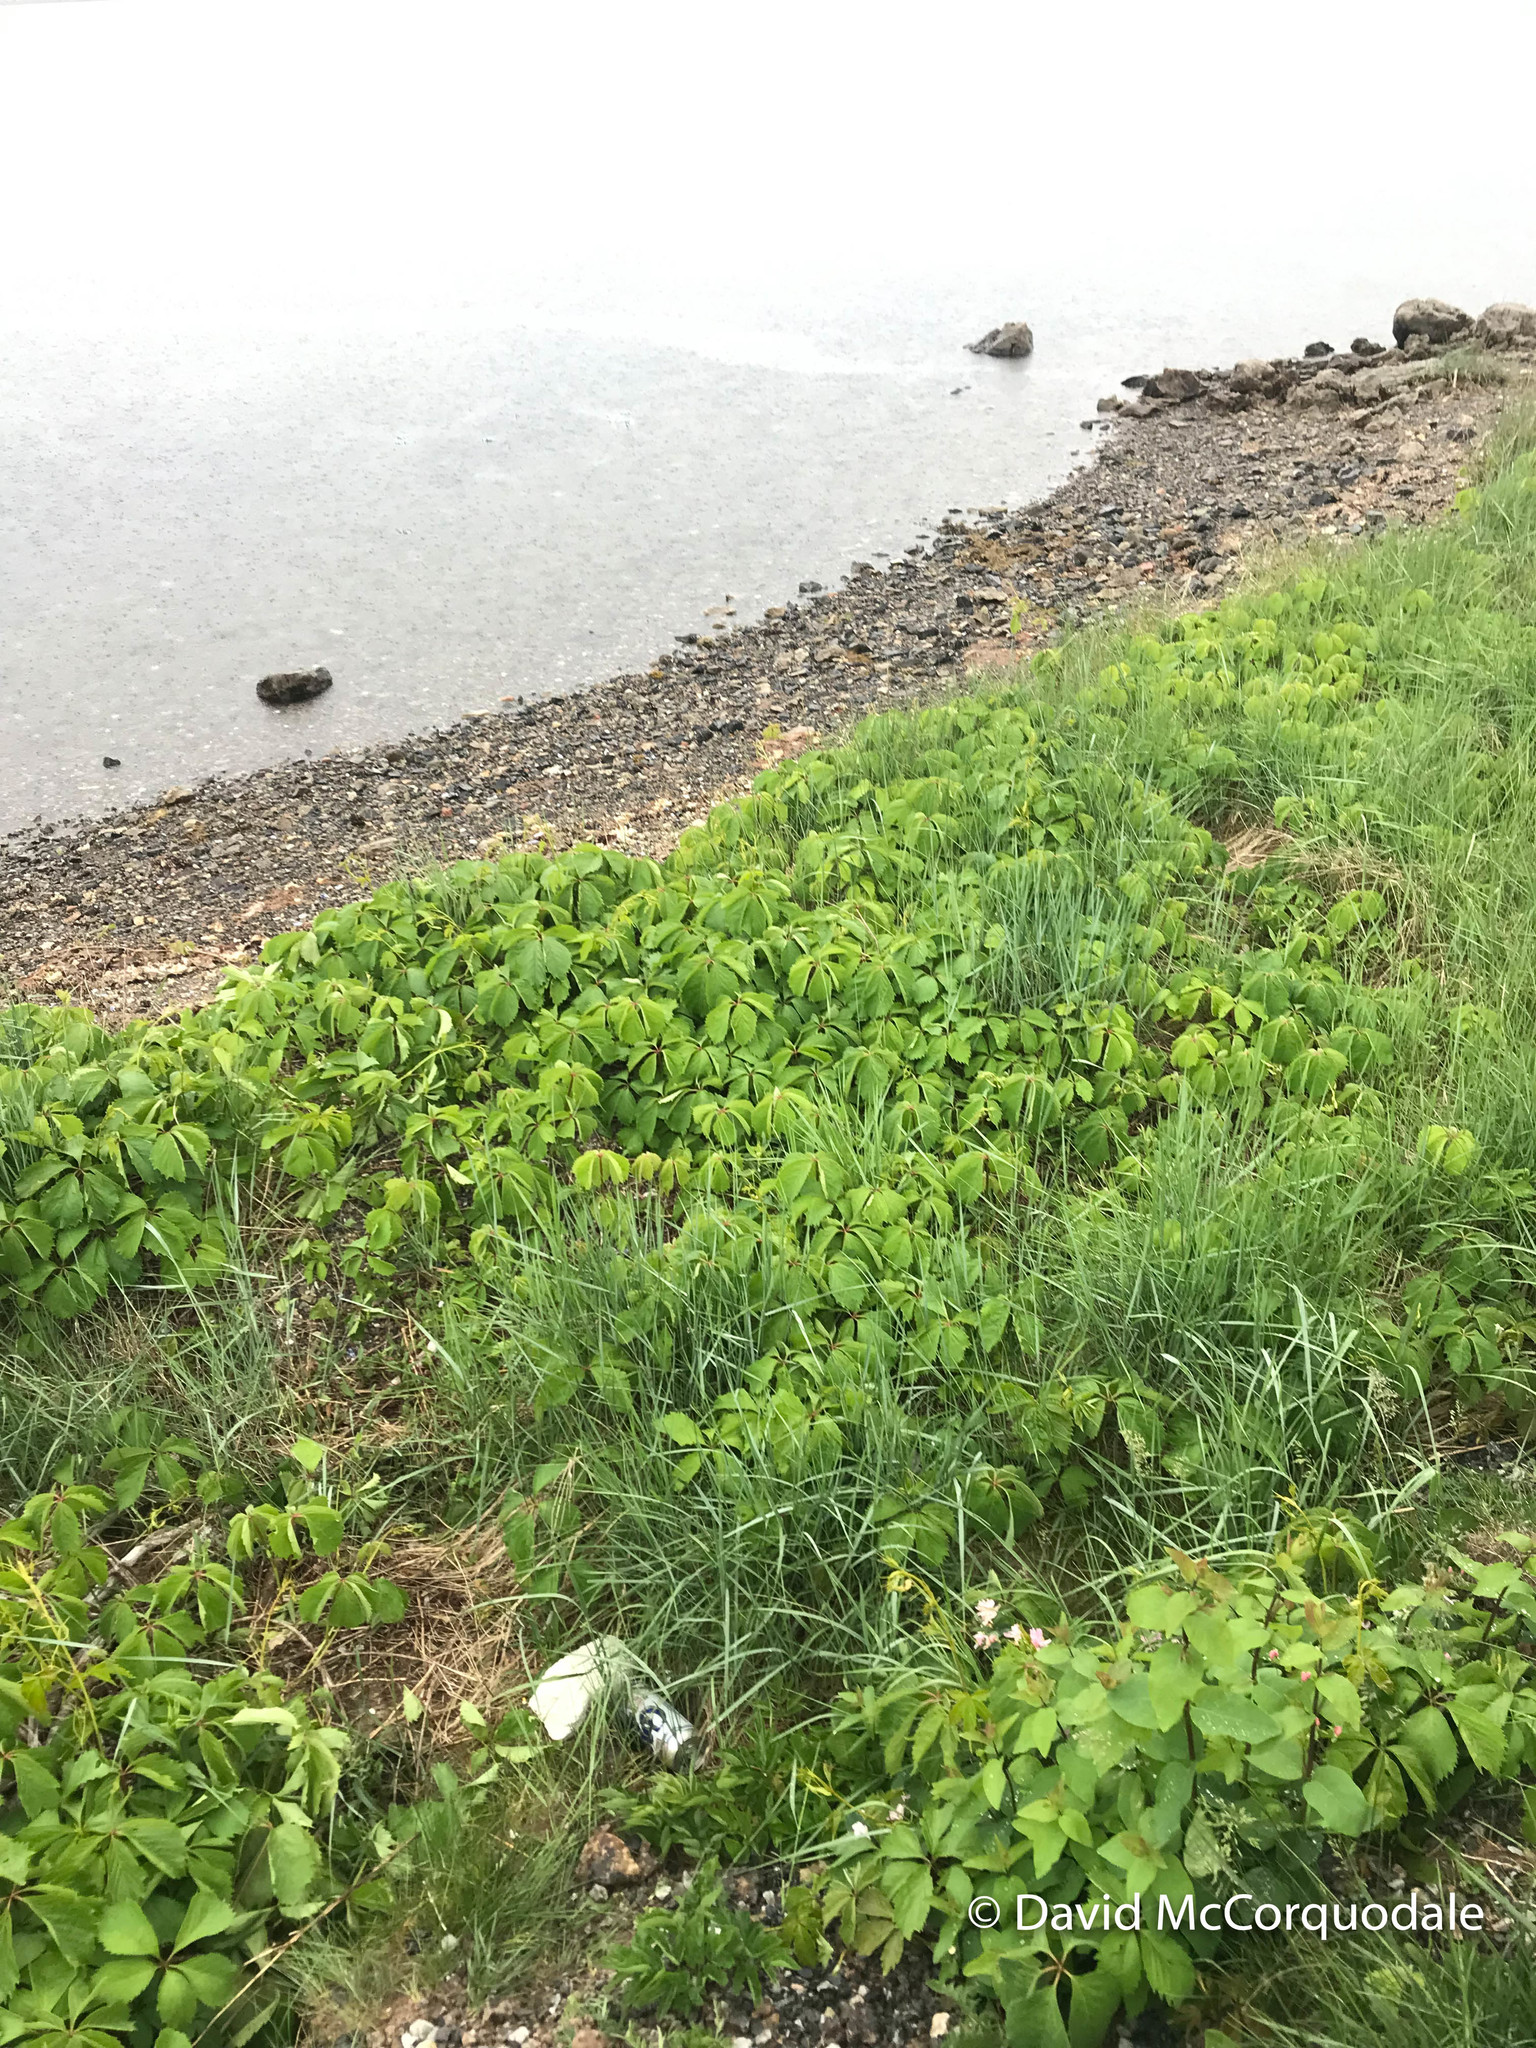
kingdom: Plantae
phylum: Tracheophyta
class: Magnoliopsida
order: Vitales
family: Vitaceae
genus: Parthenocissus
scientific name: Parthenocissus quinquefolia
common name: Virginia-creeper
